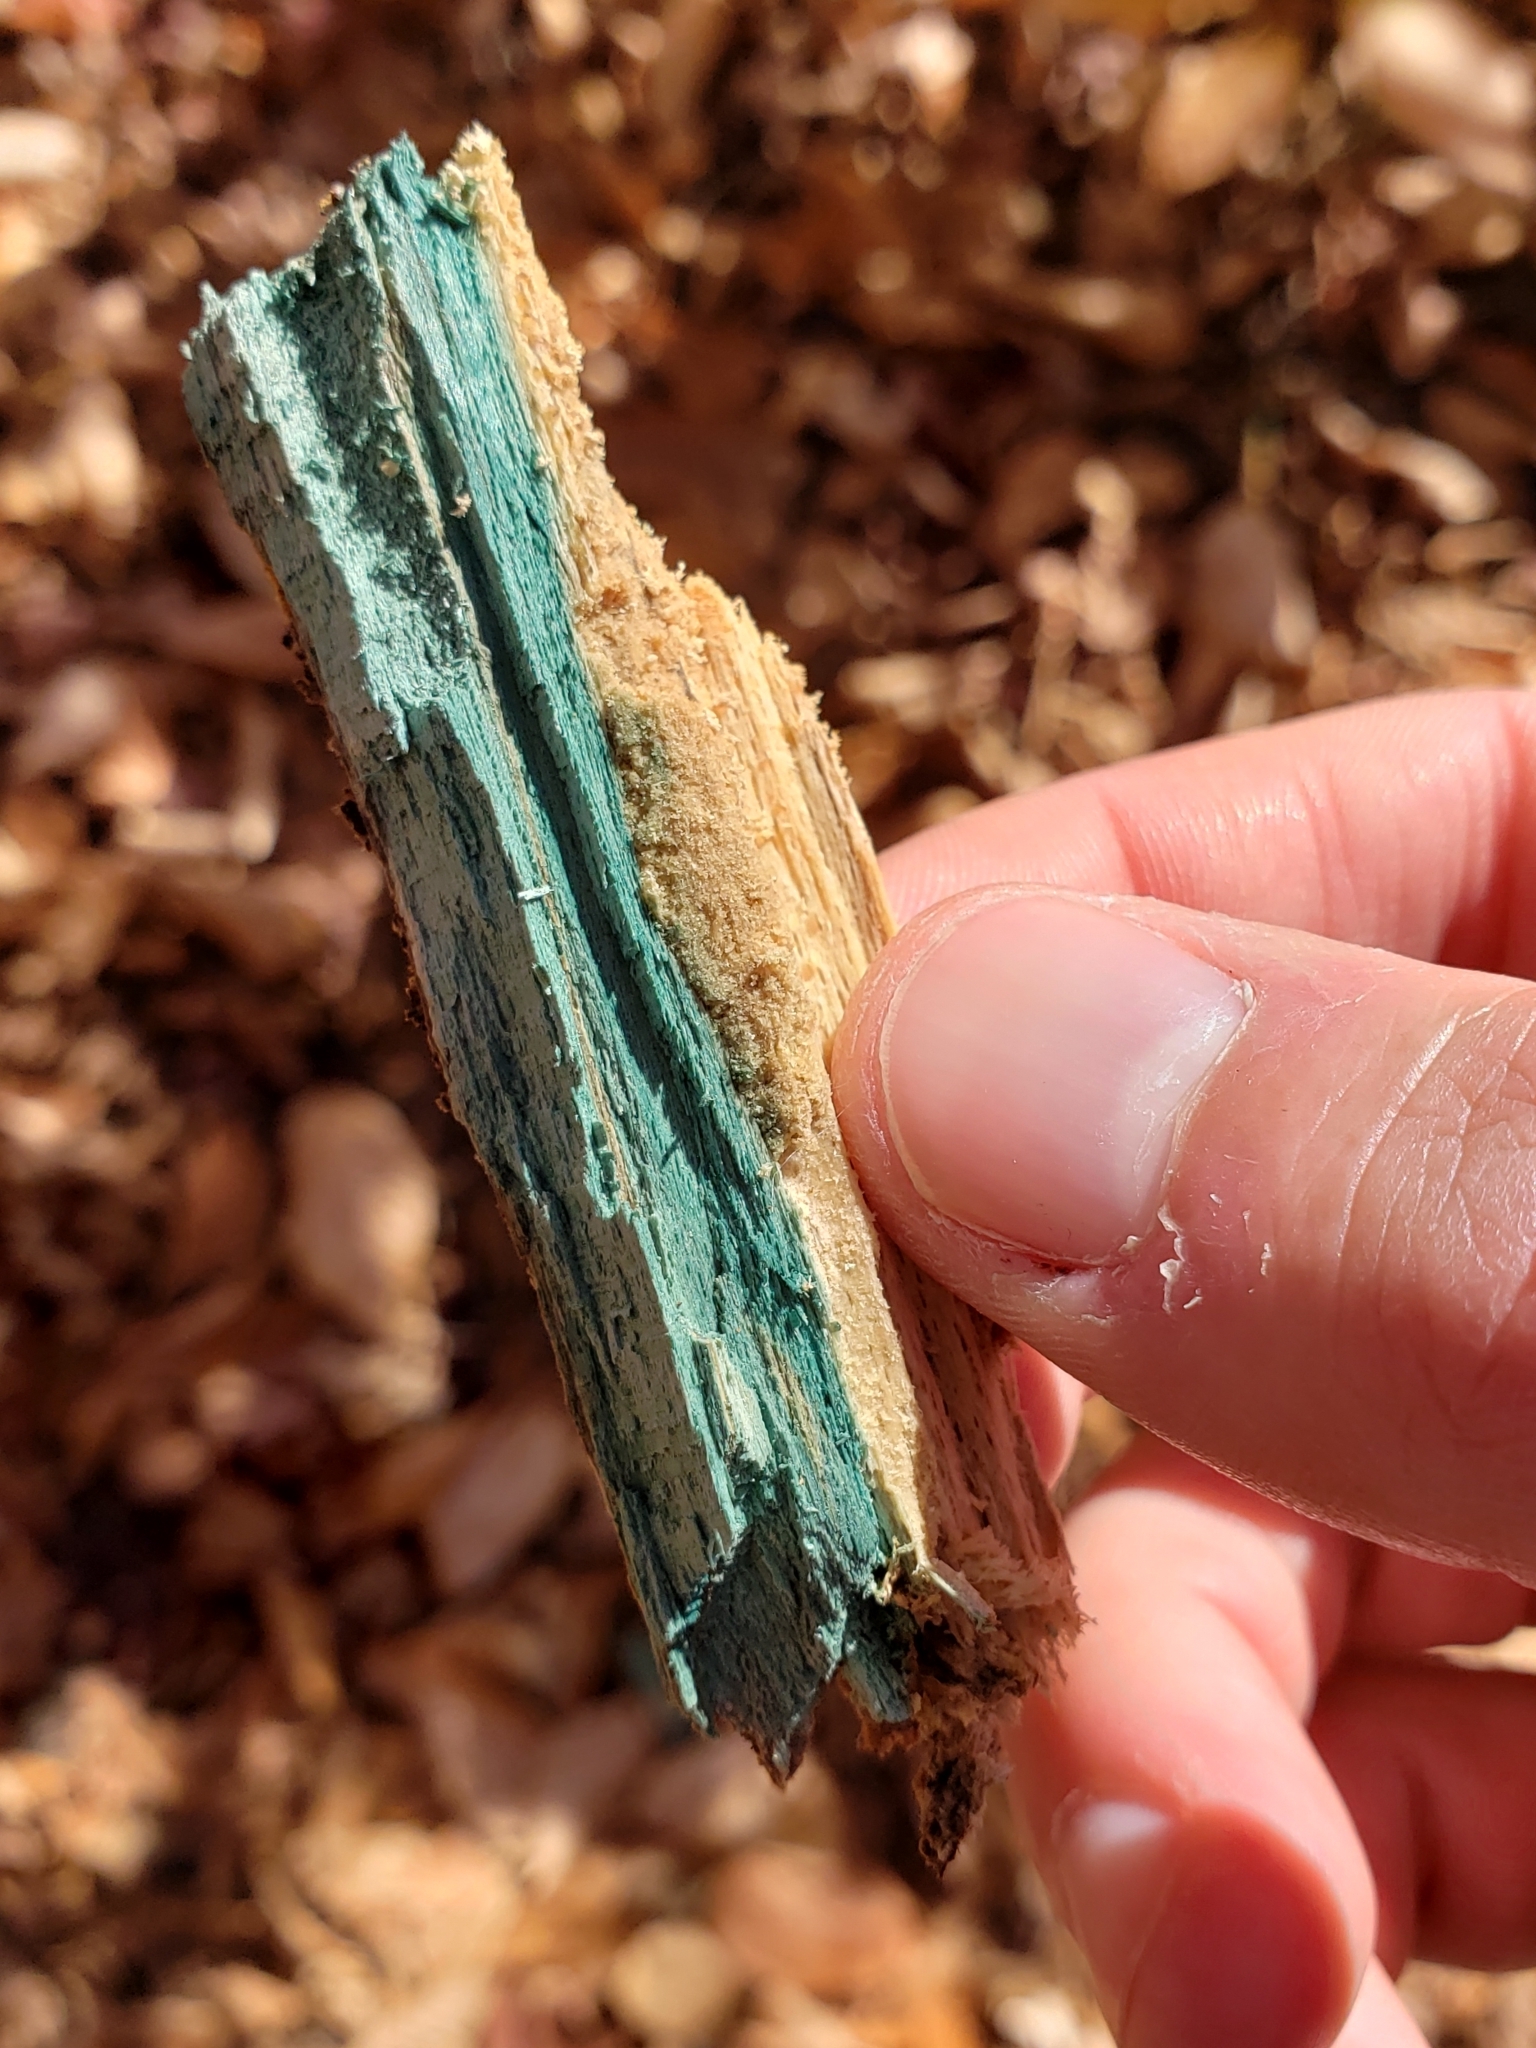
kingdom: Fungi
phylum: Ascomycota
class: Leotiomycetes
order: Helotiales
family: Chlorociboriaceae
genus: Chlorociboria
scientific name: Chlorociboria aeruginascens
